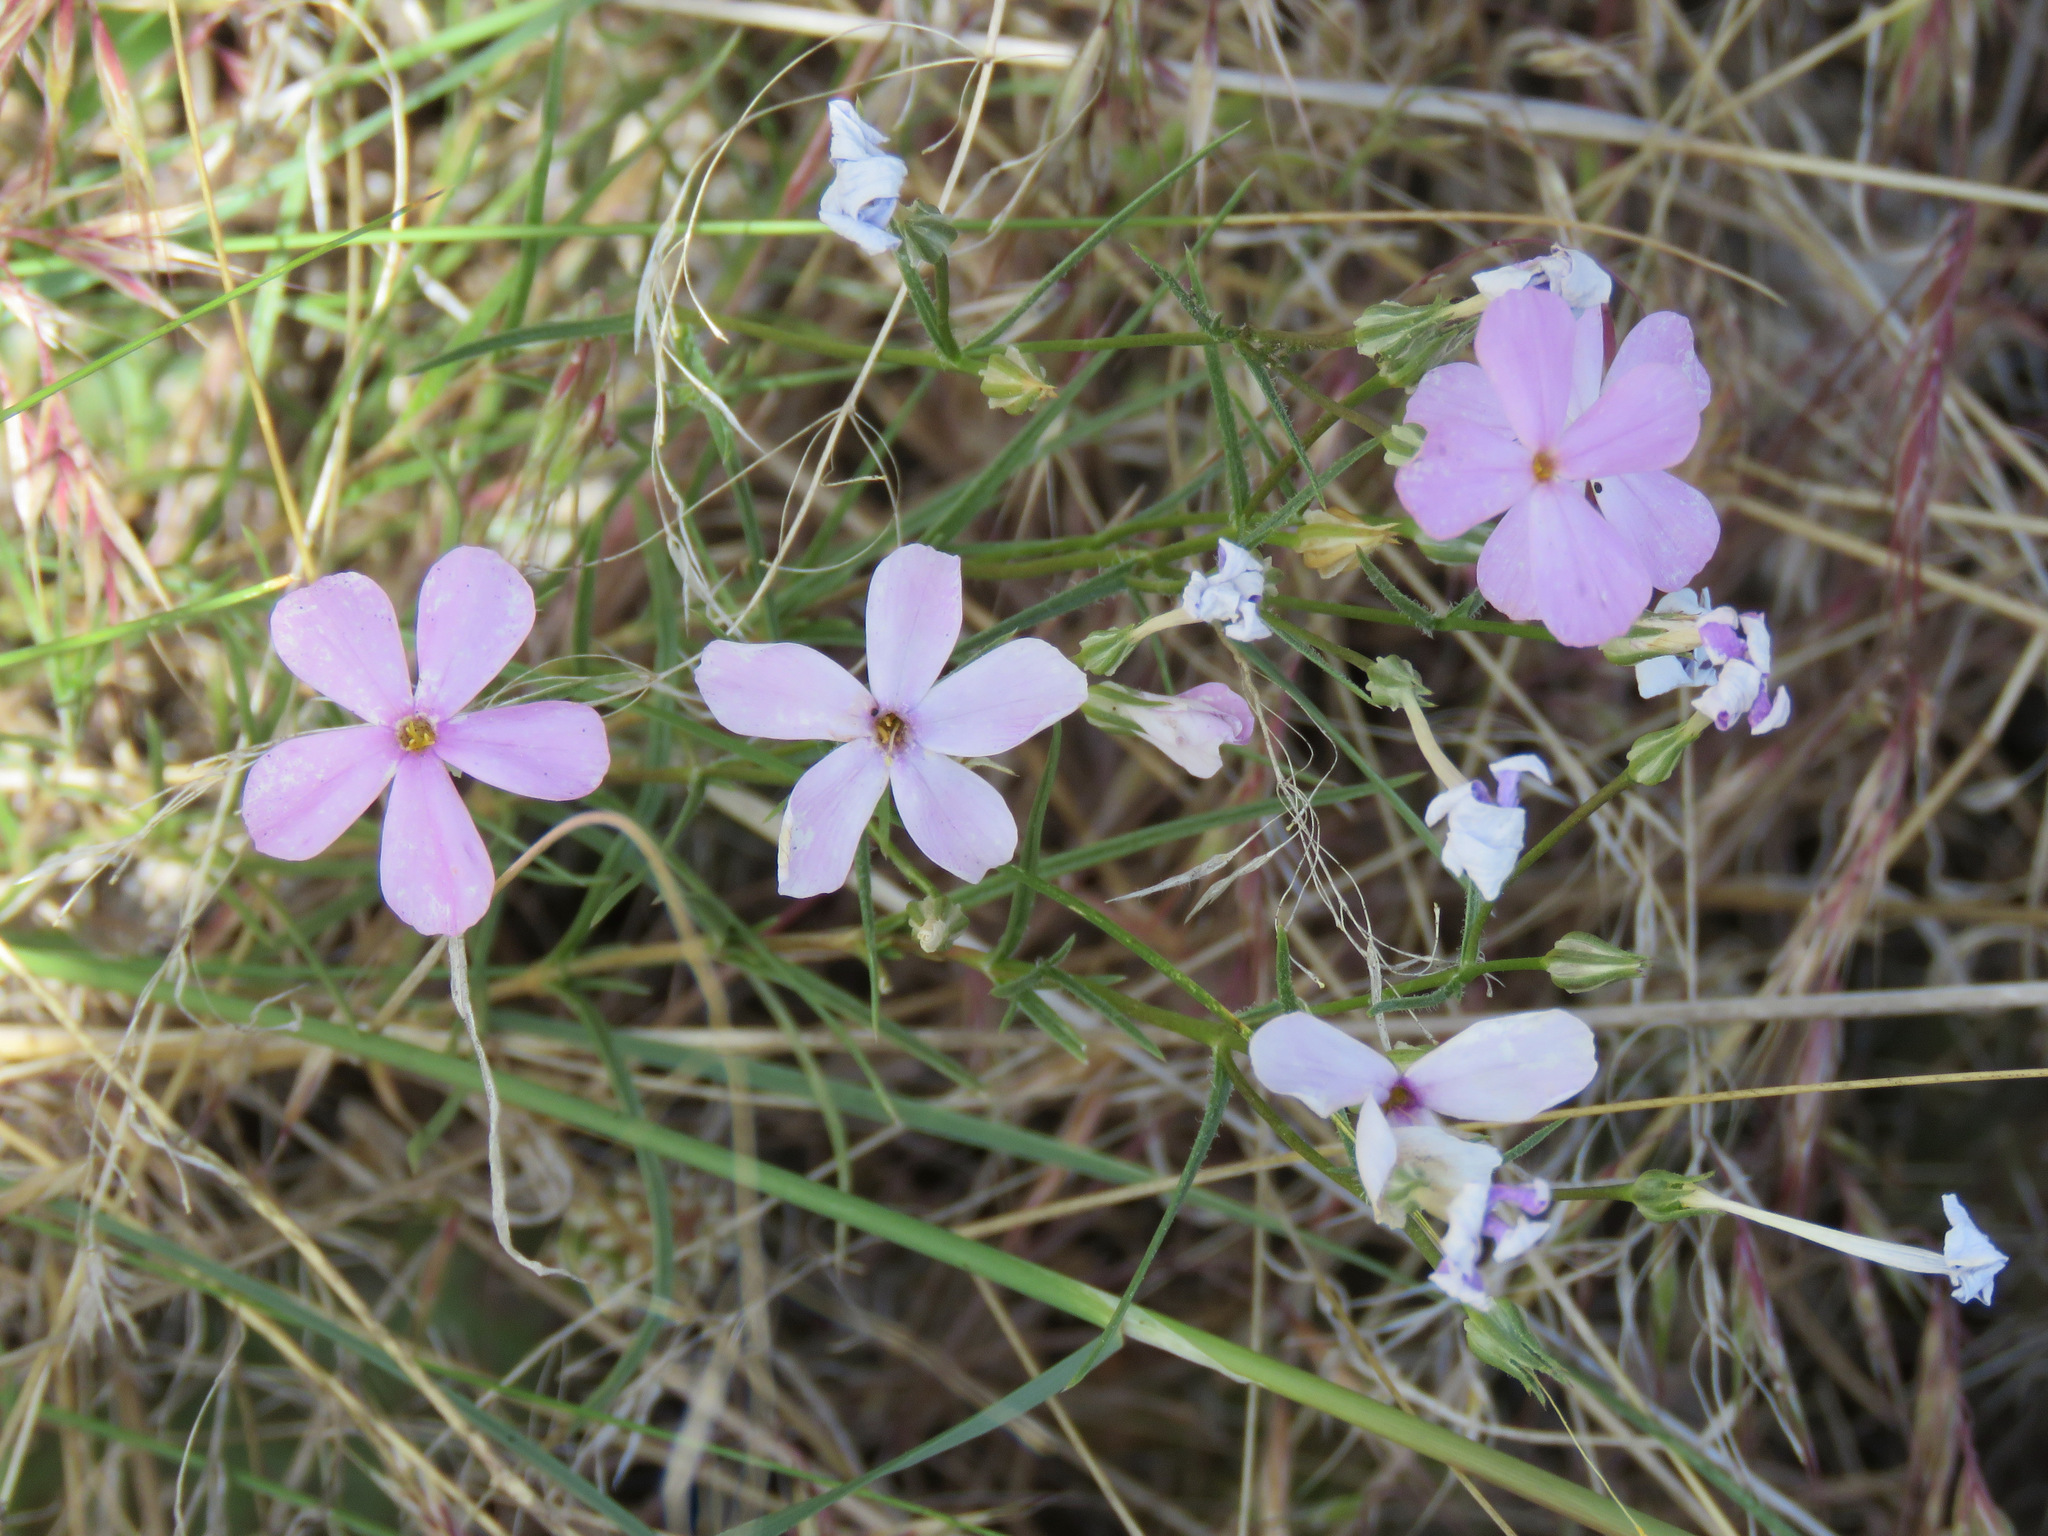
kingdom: Plantae
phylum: Tracheophyta
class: Magnoliopsida
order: Ericales
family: Polemoniaceae
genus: Phlox
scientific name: Phlox longifolia
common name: Longleaf phlox
